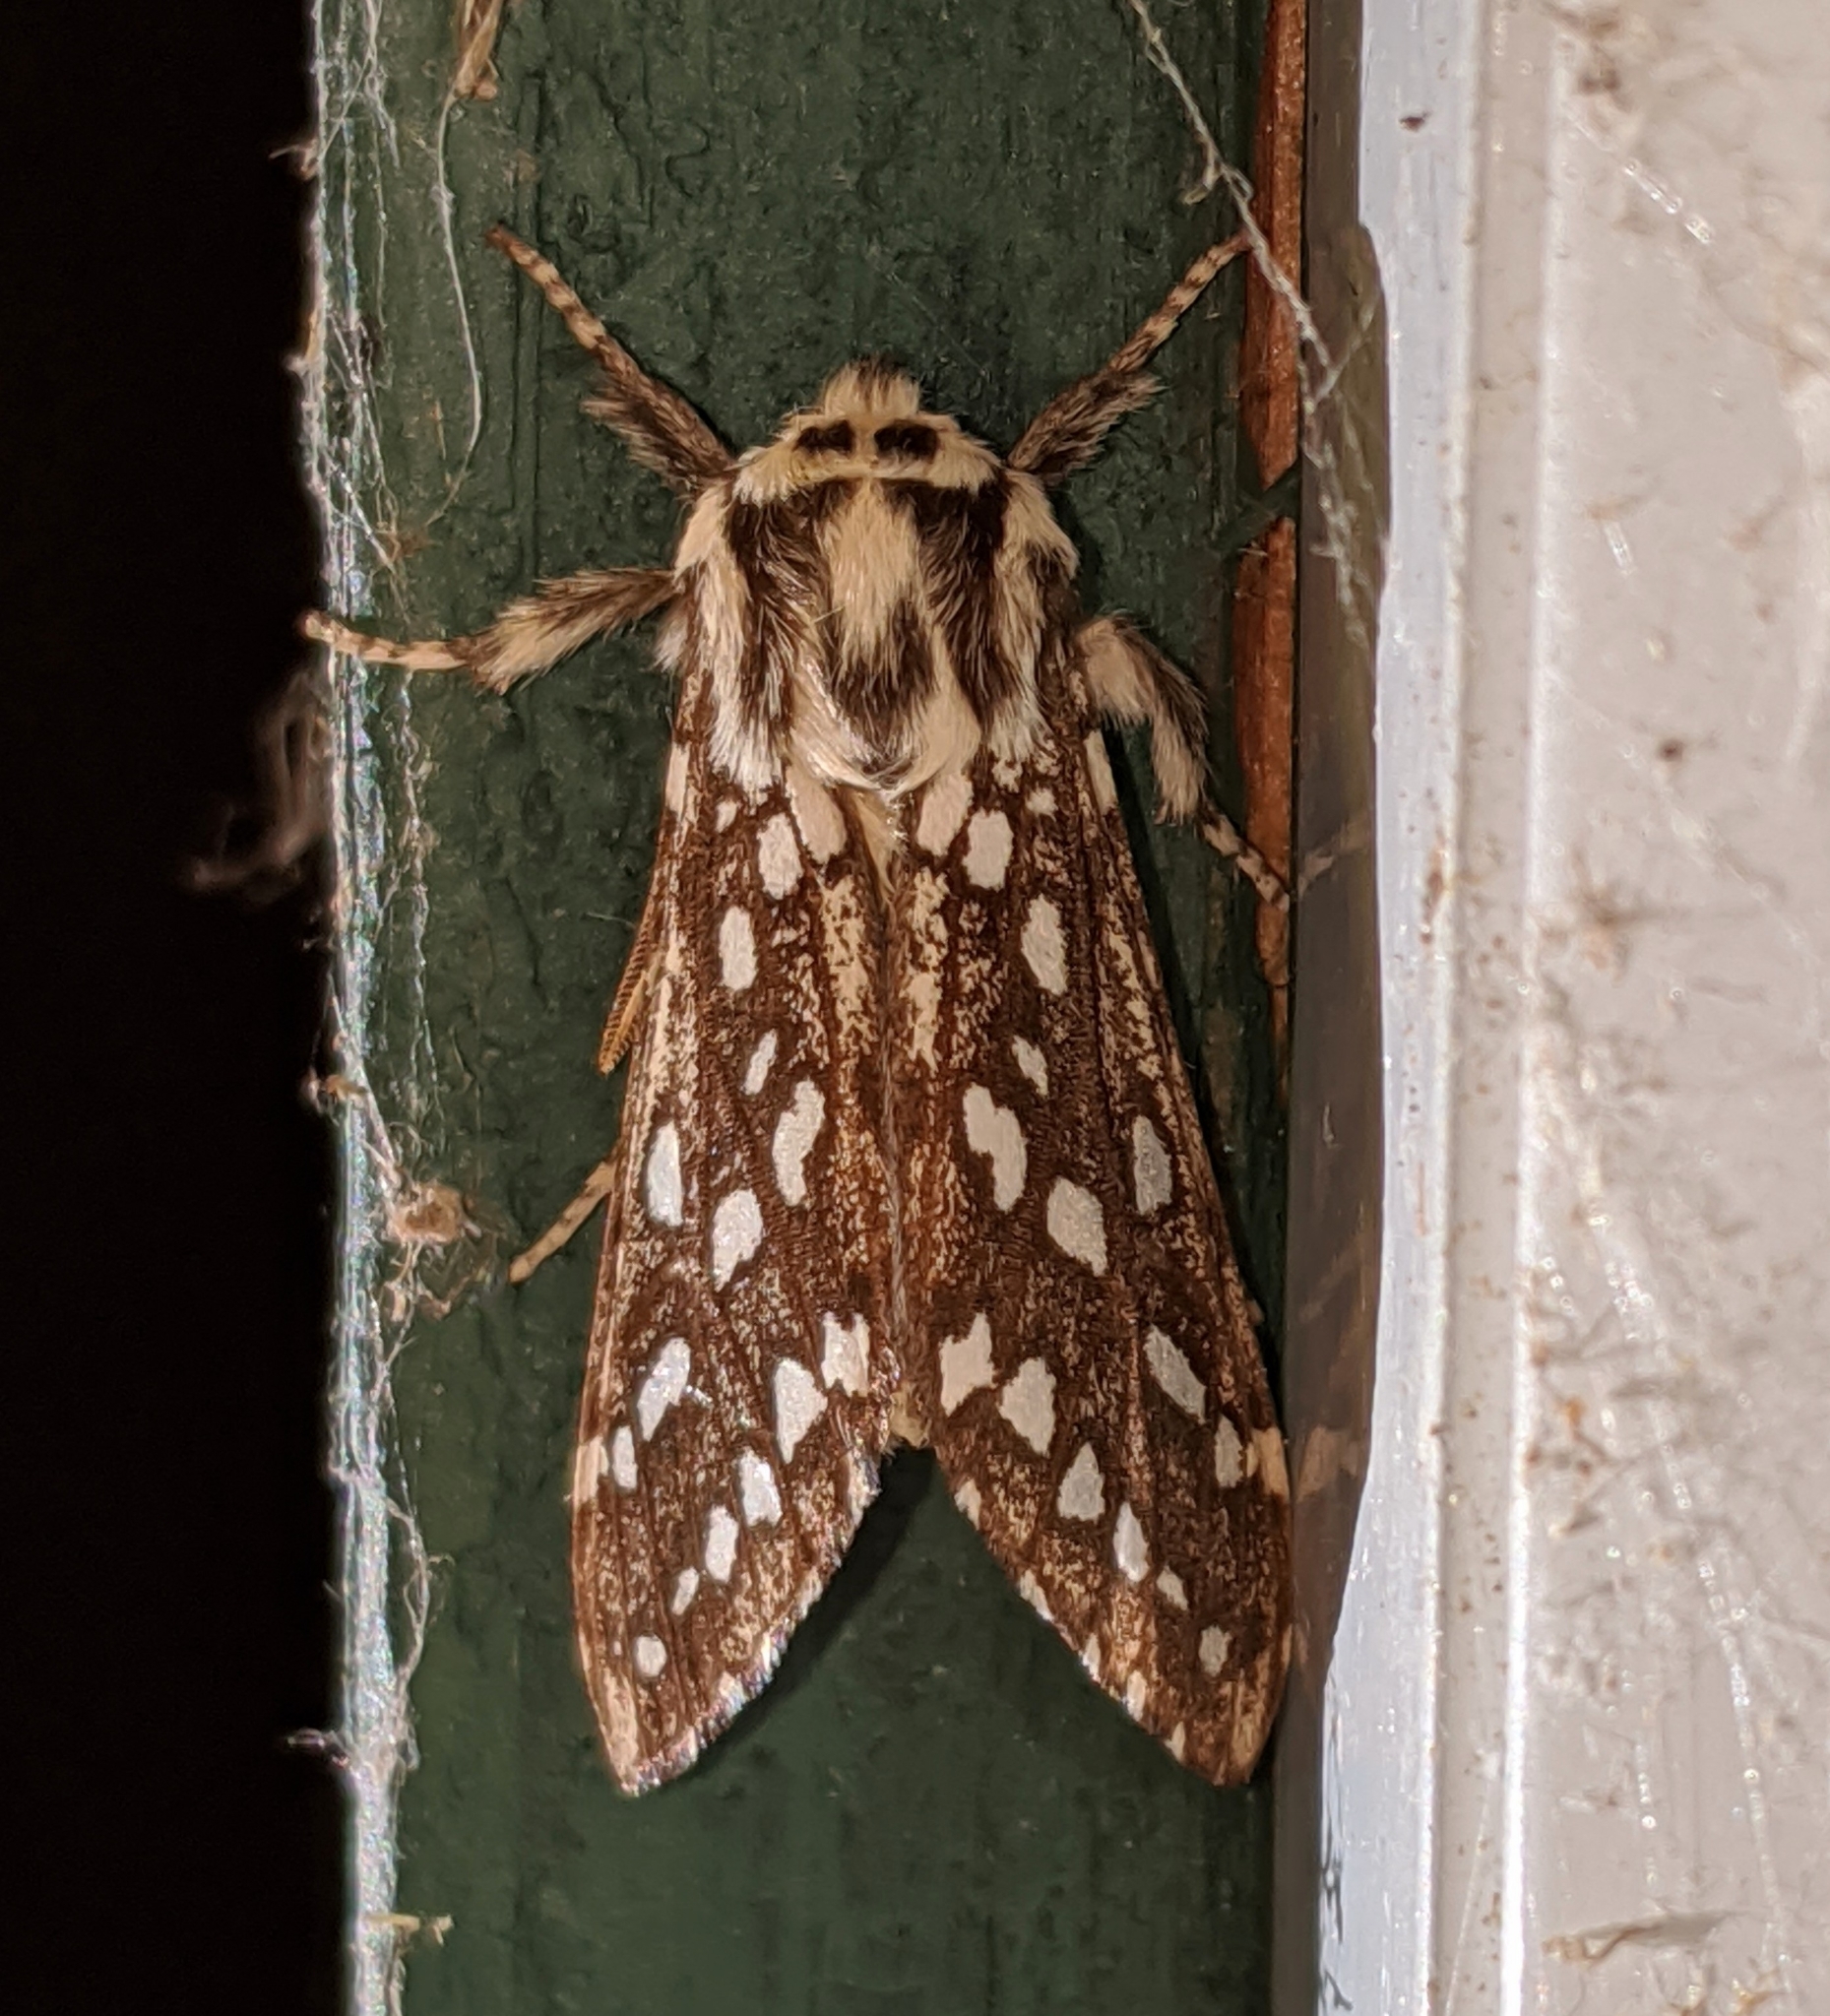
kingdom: Animalia
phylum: Arthropoda
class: Insecta
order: Lepidoptera
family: Erebidae
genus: Lophocampa
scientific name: Lophocampa argentata
